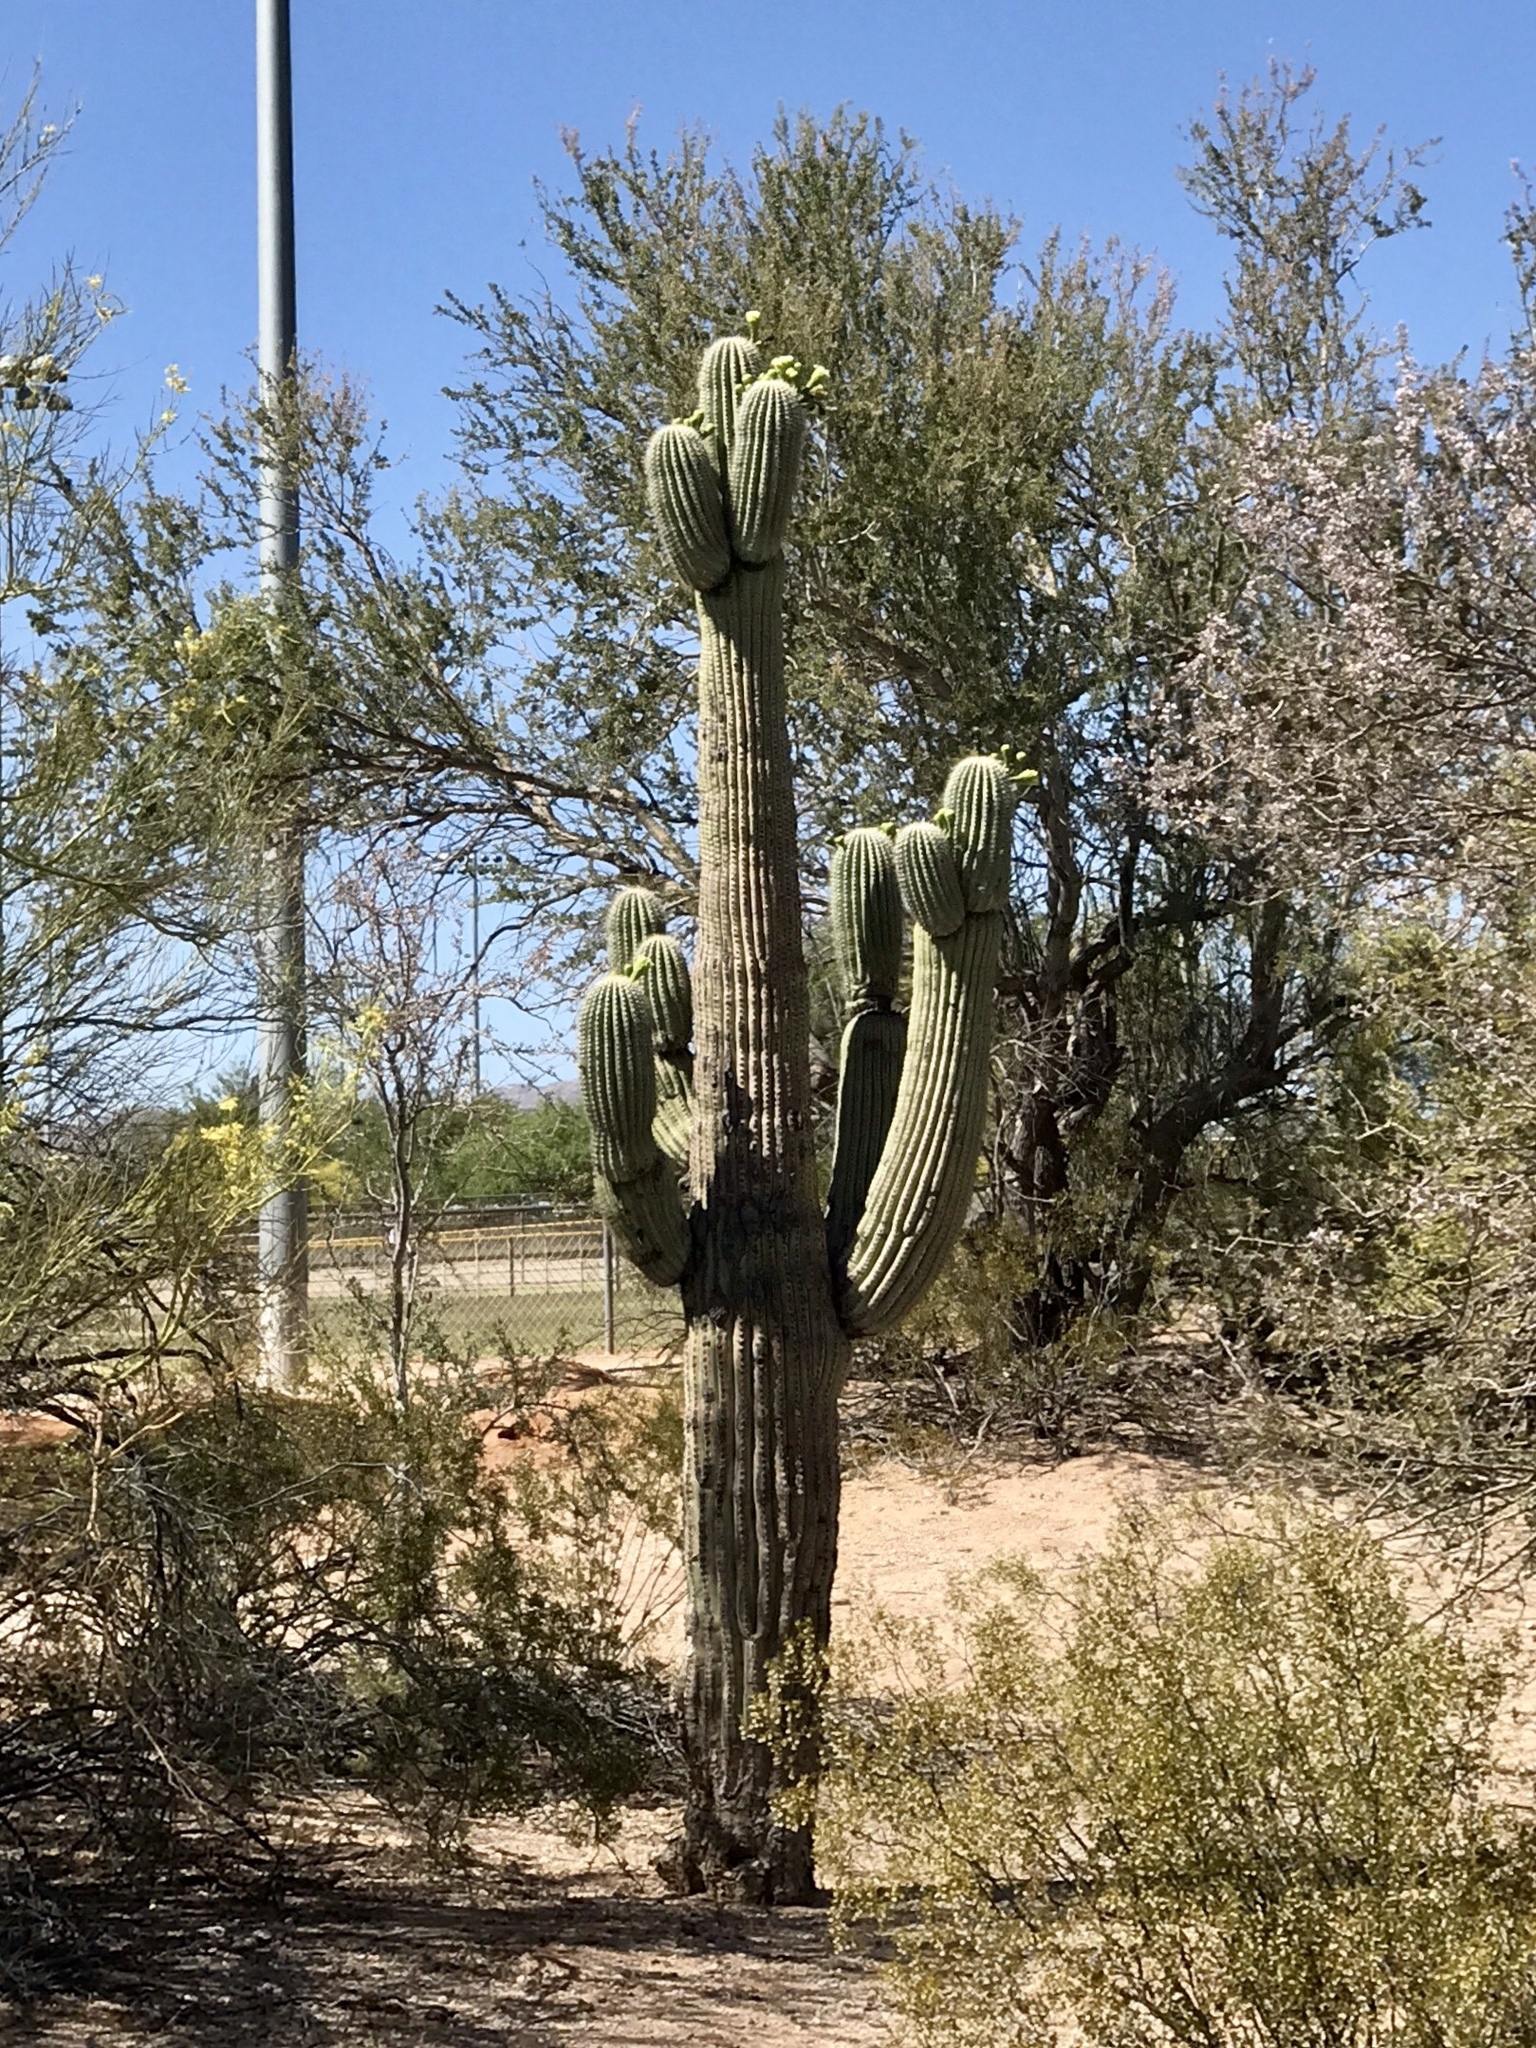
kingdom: Plantae
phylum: Tracheophyta
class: Magnoliopsida
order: Caryophyllales
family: Cactaceae
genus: Carnegiea
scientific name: Carnegiea gigantea
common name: Saguaro
